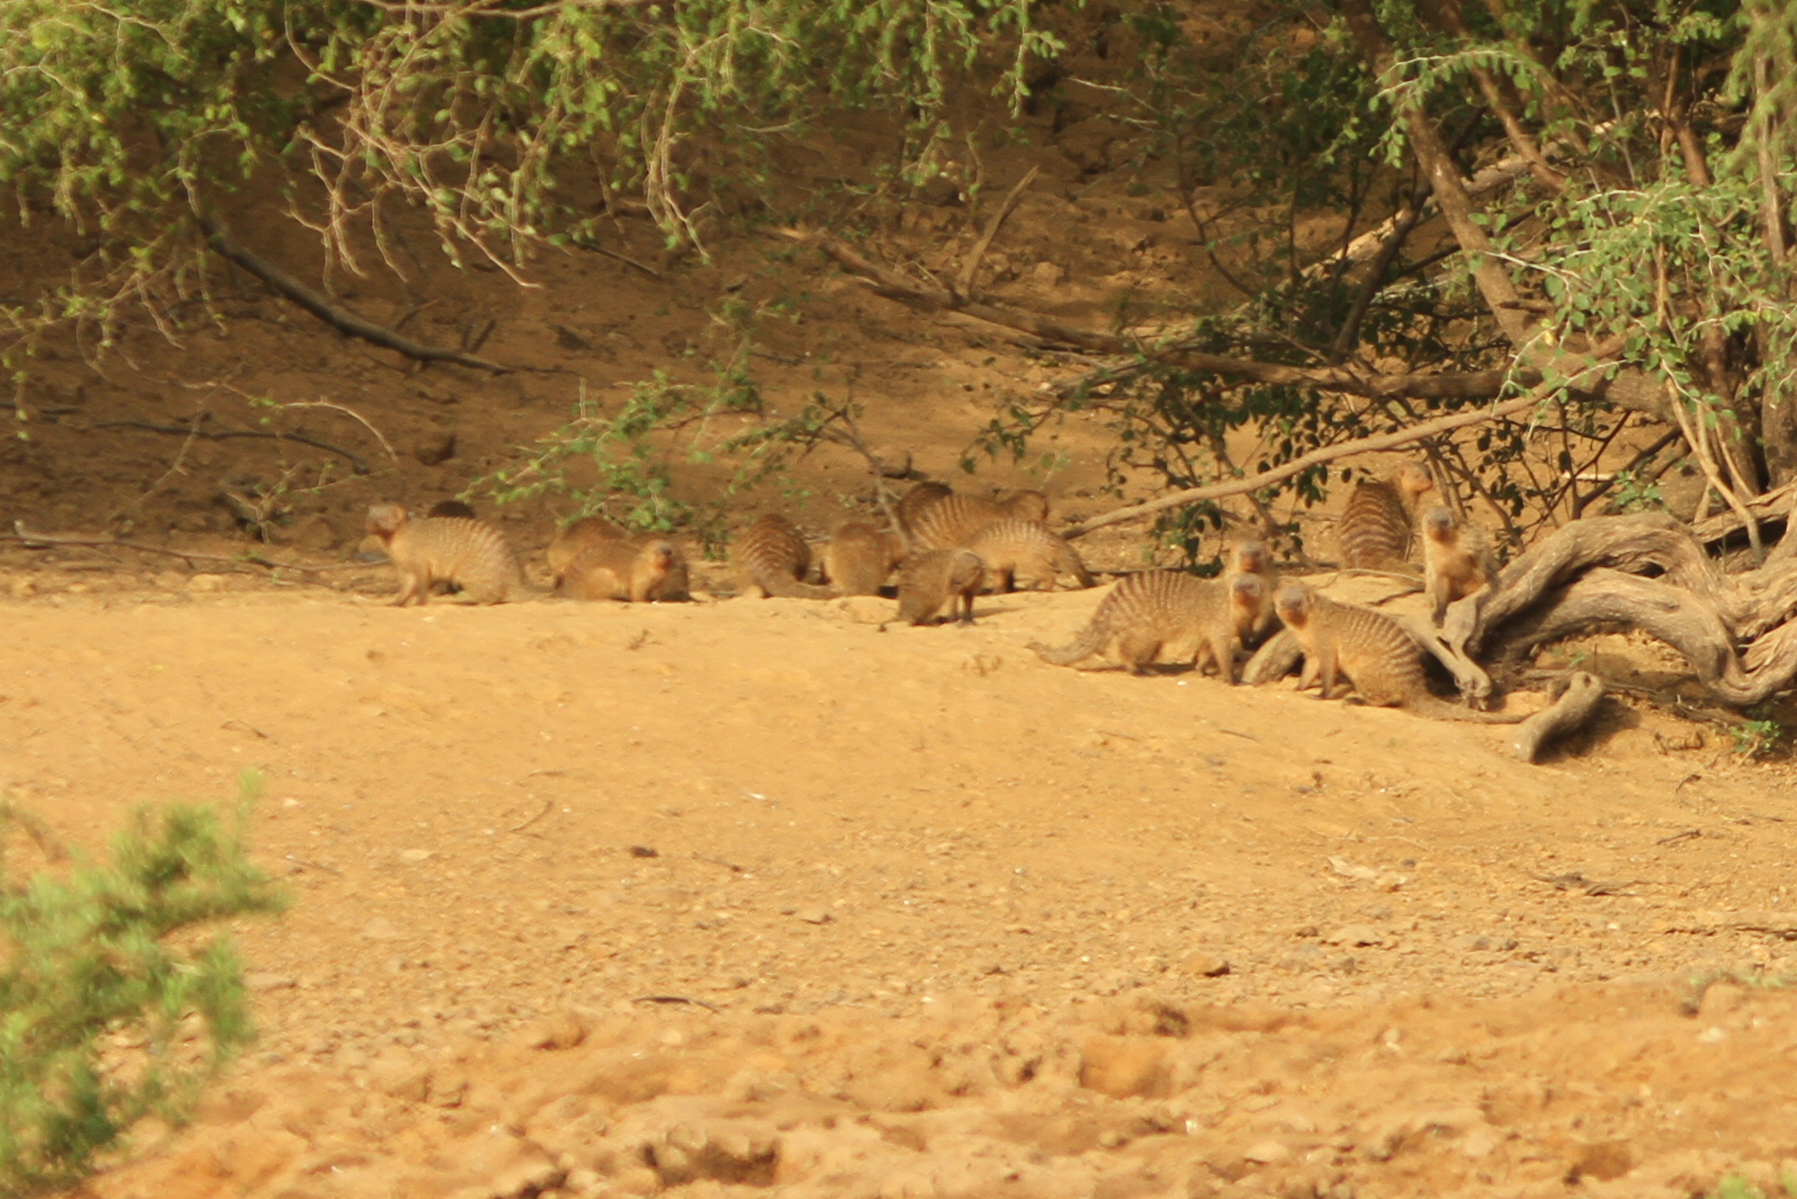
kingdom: Animalia
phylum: Chordata
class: Mammalia
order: Carnivora
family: Herpestidae
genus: Mungos
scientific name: Mungos mungo
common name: Banded mongoose
